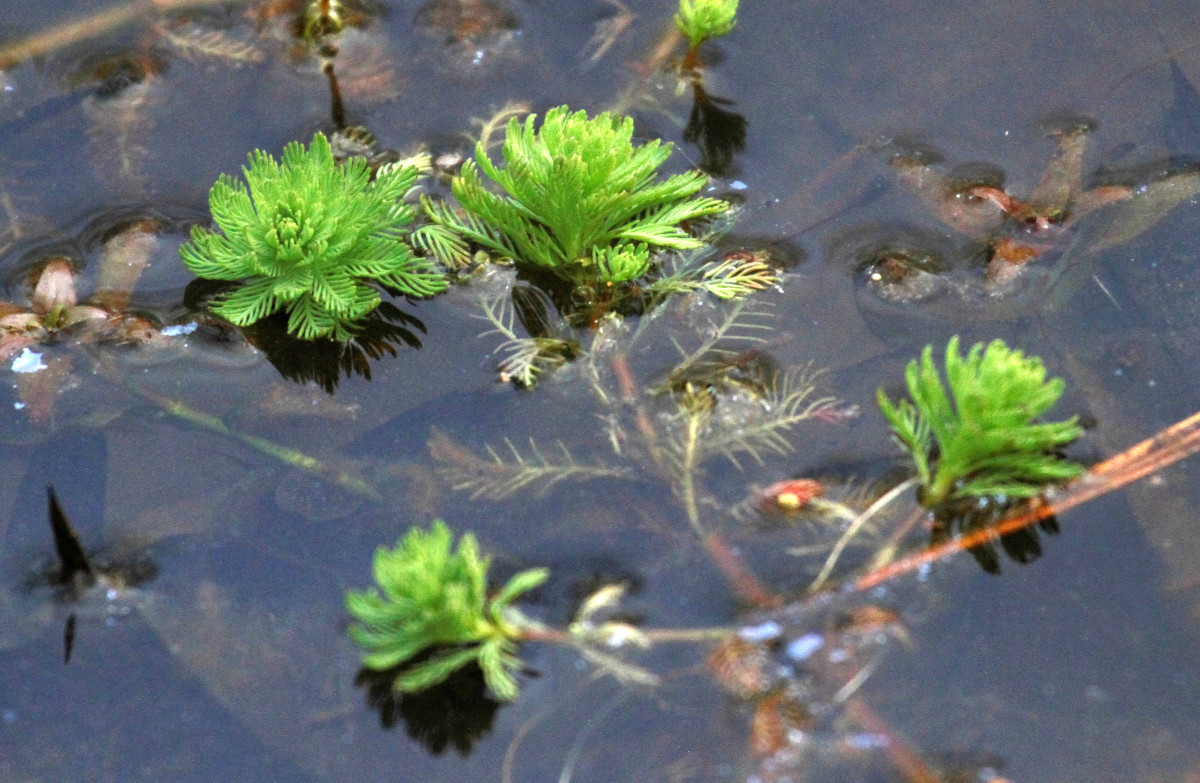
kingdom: Plantae
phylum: Tracheophyta
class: Magnoliopsida
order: Saxifragales
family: Haloragaceae
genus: Myriophyllum
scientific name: Myriophyllum aquaticum
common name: Parrot's feather
